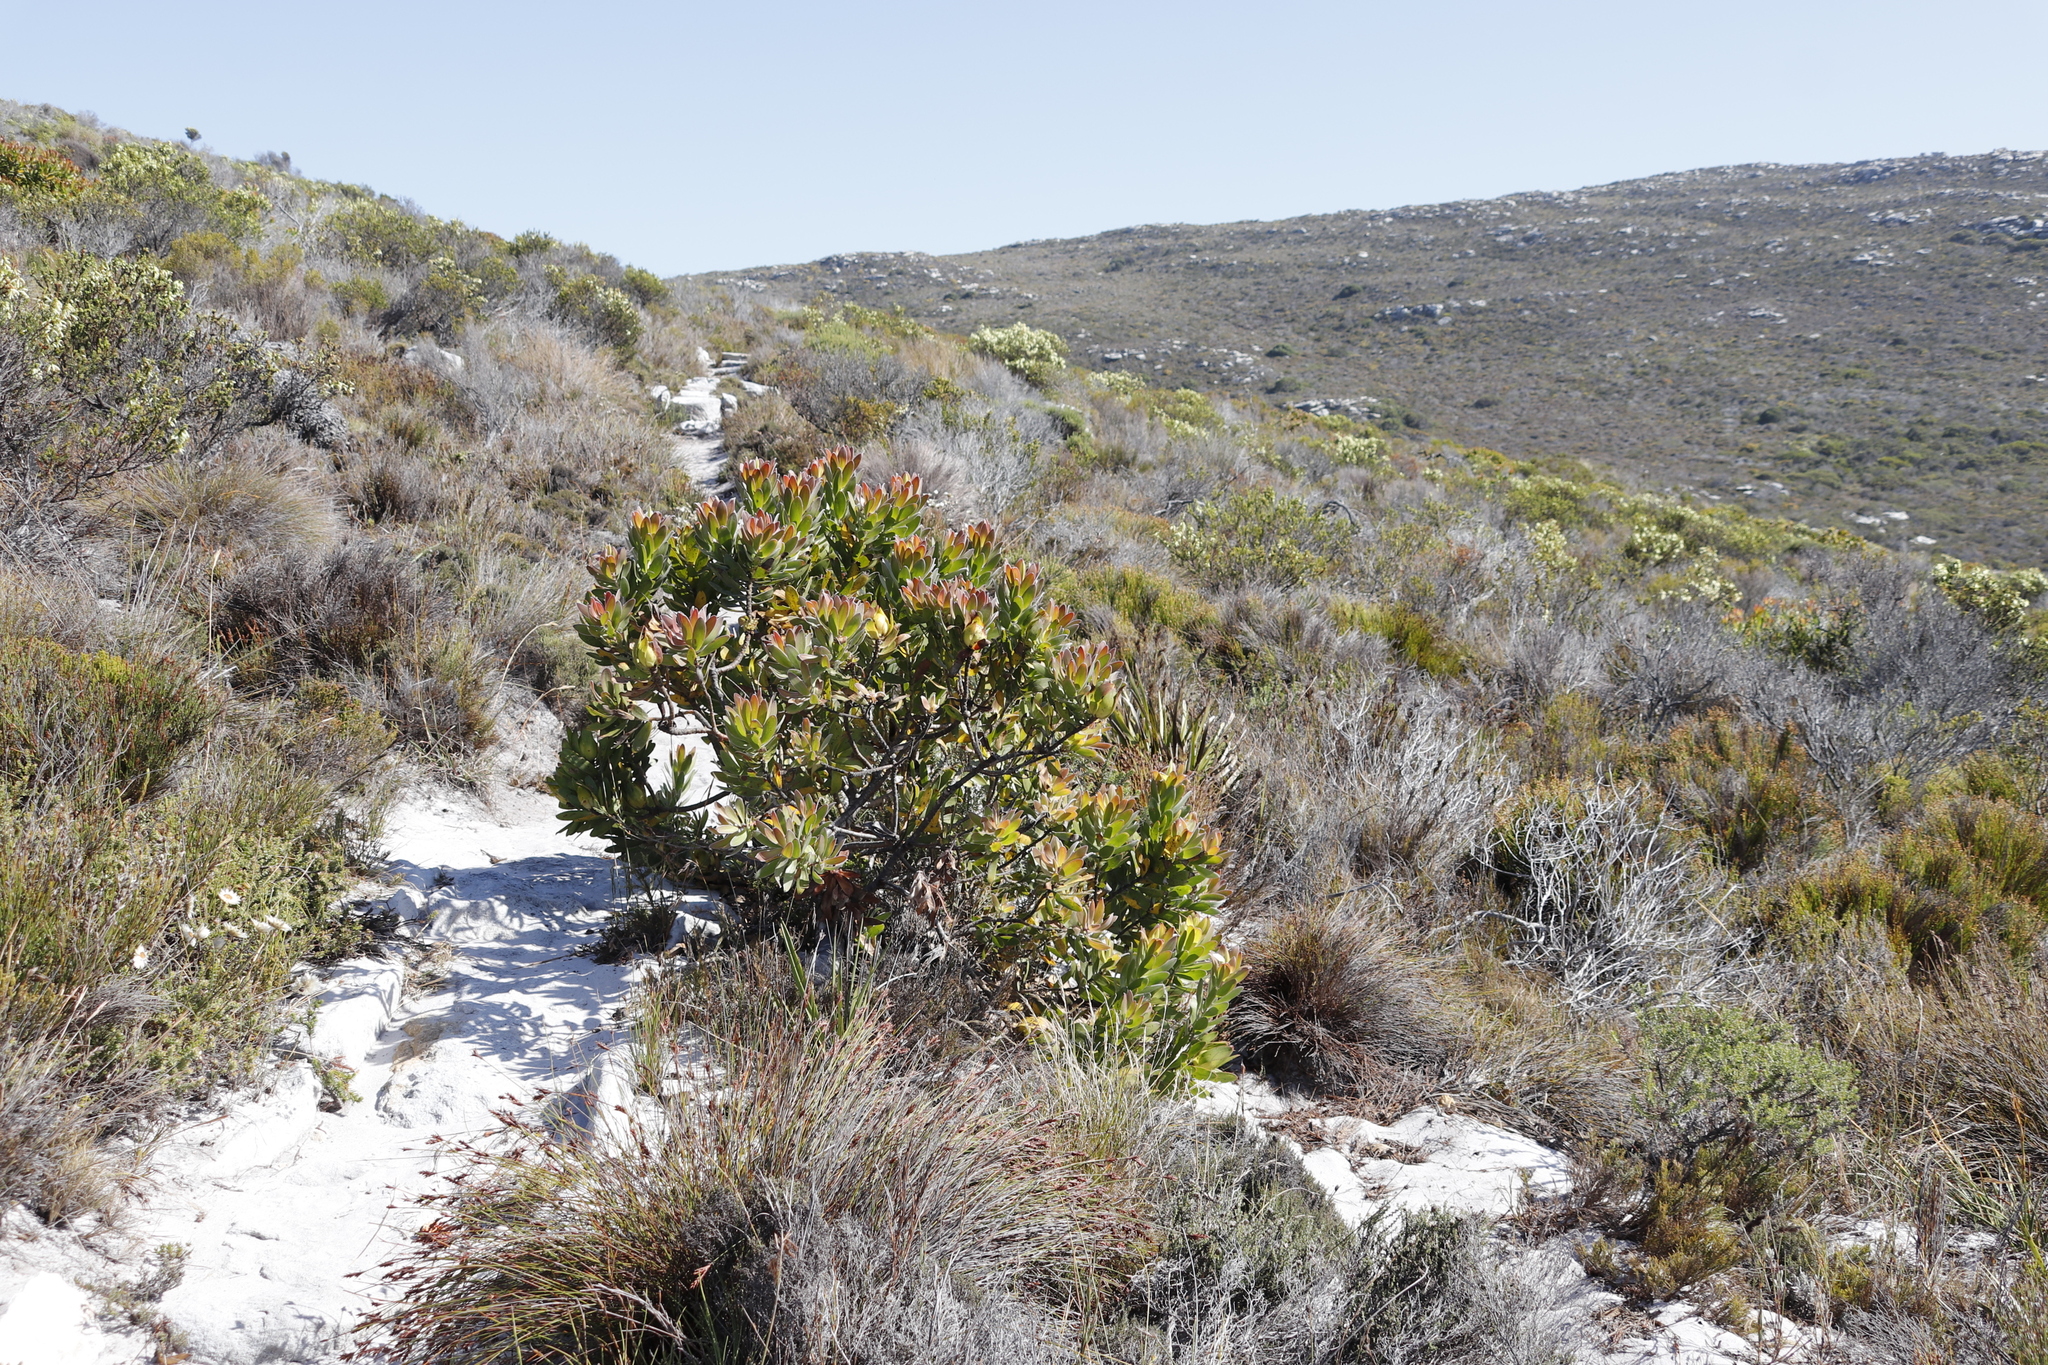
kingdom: Plantae
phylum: Tracheophyta
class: Magnoliopsida
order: Proteales
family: Proteaceae
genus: Leucadendron
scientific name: Leucadendron laureolum
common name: Golden sunshinebush
